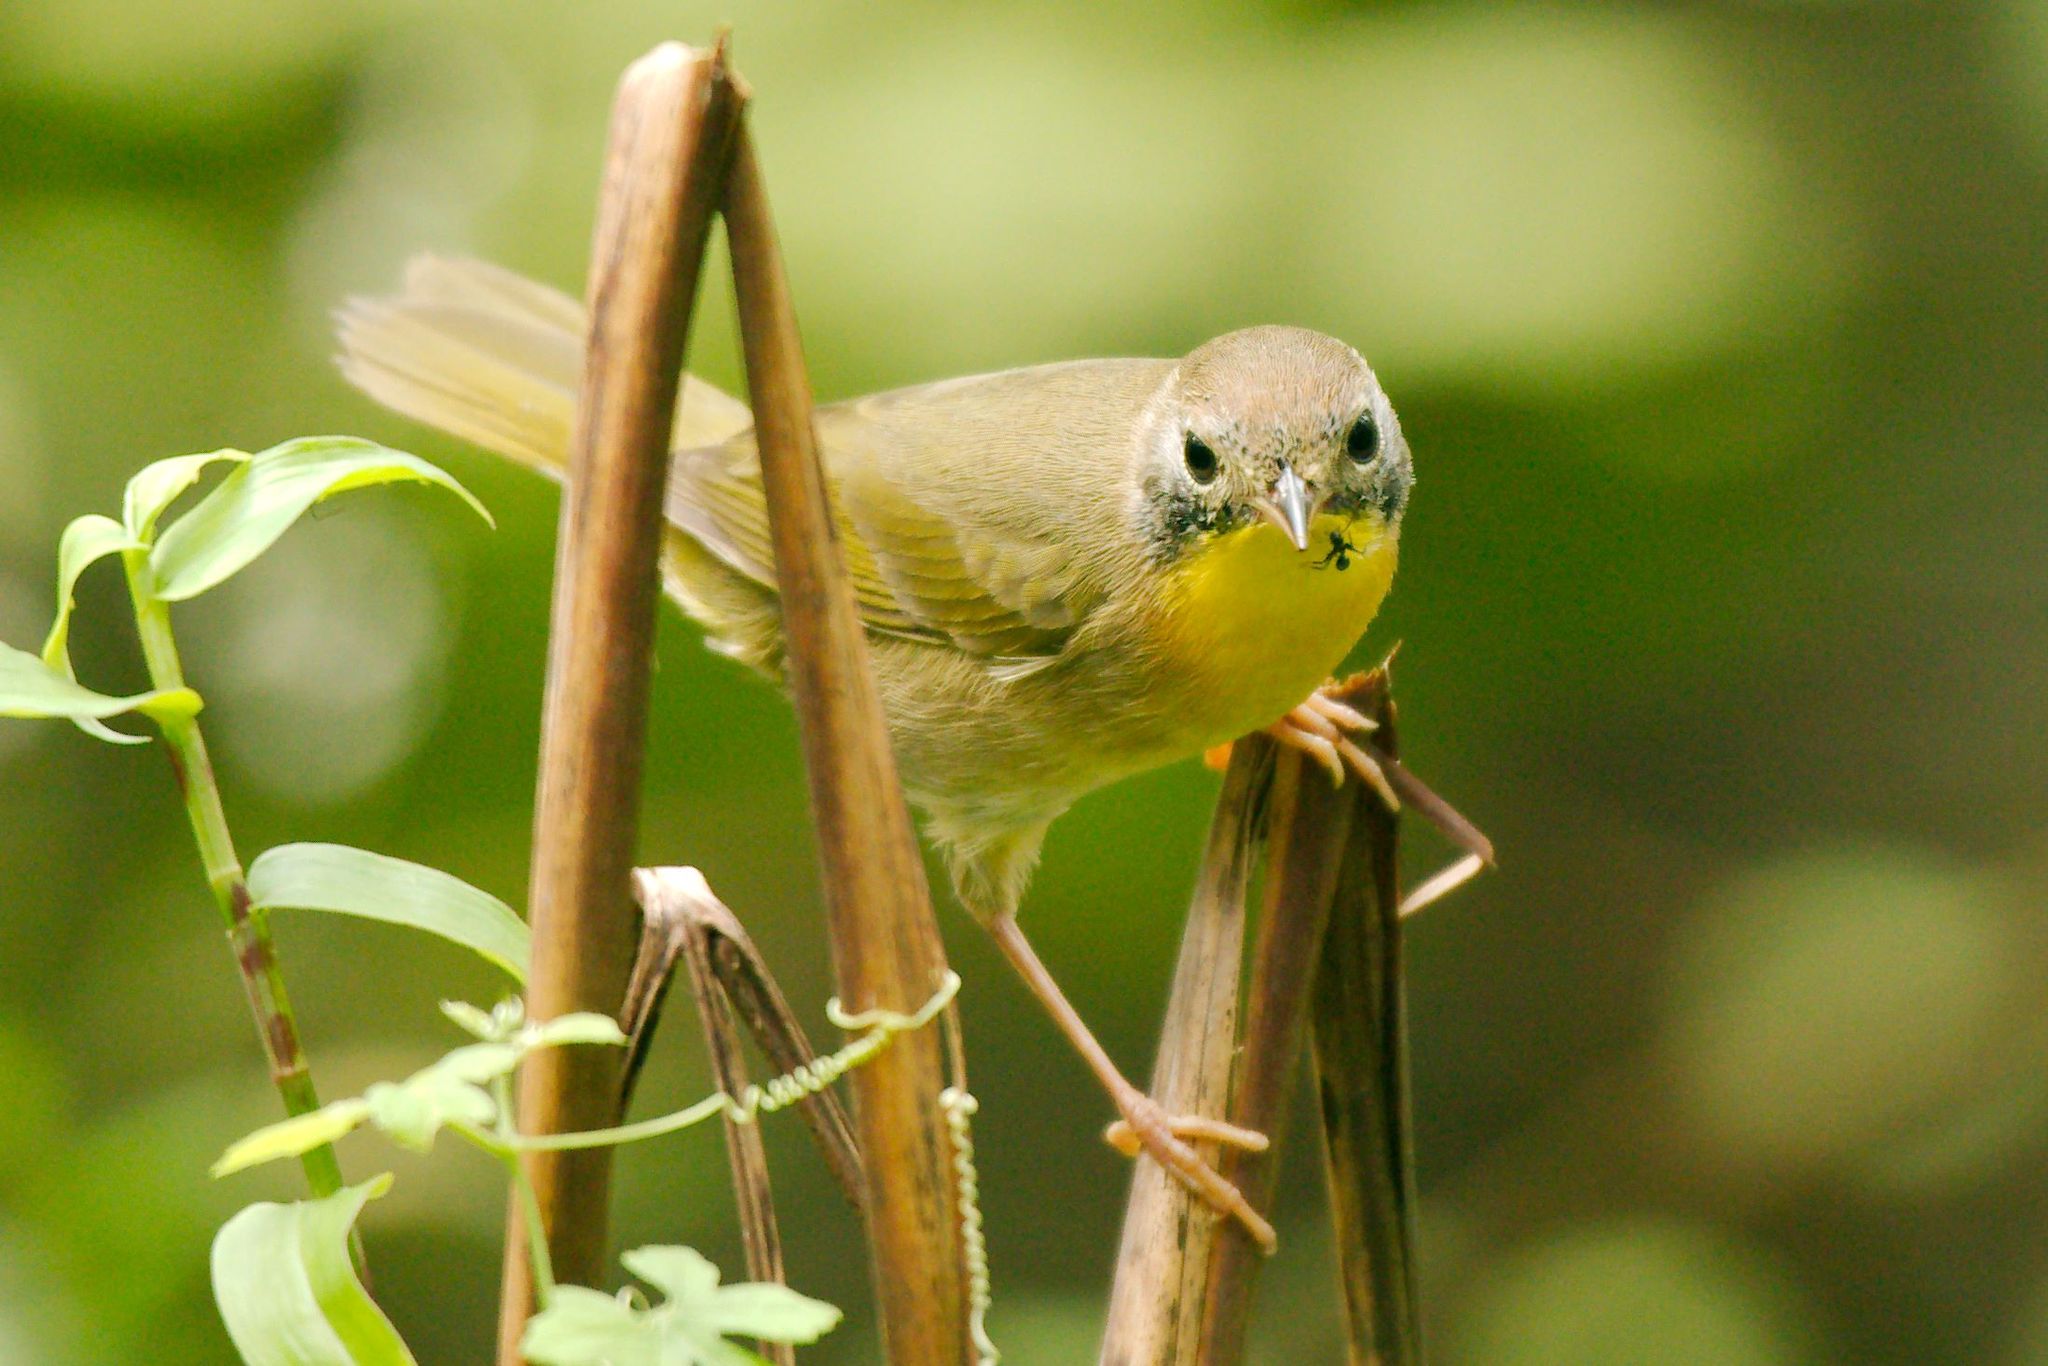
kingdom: Animalia
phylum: Chordata
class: Aves
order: Passeriformes
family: Parulidae
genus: Geothlypis
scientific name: Geothlypis trichas
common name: Common yellowthroat
